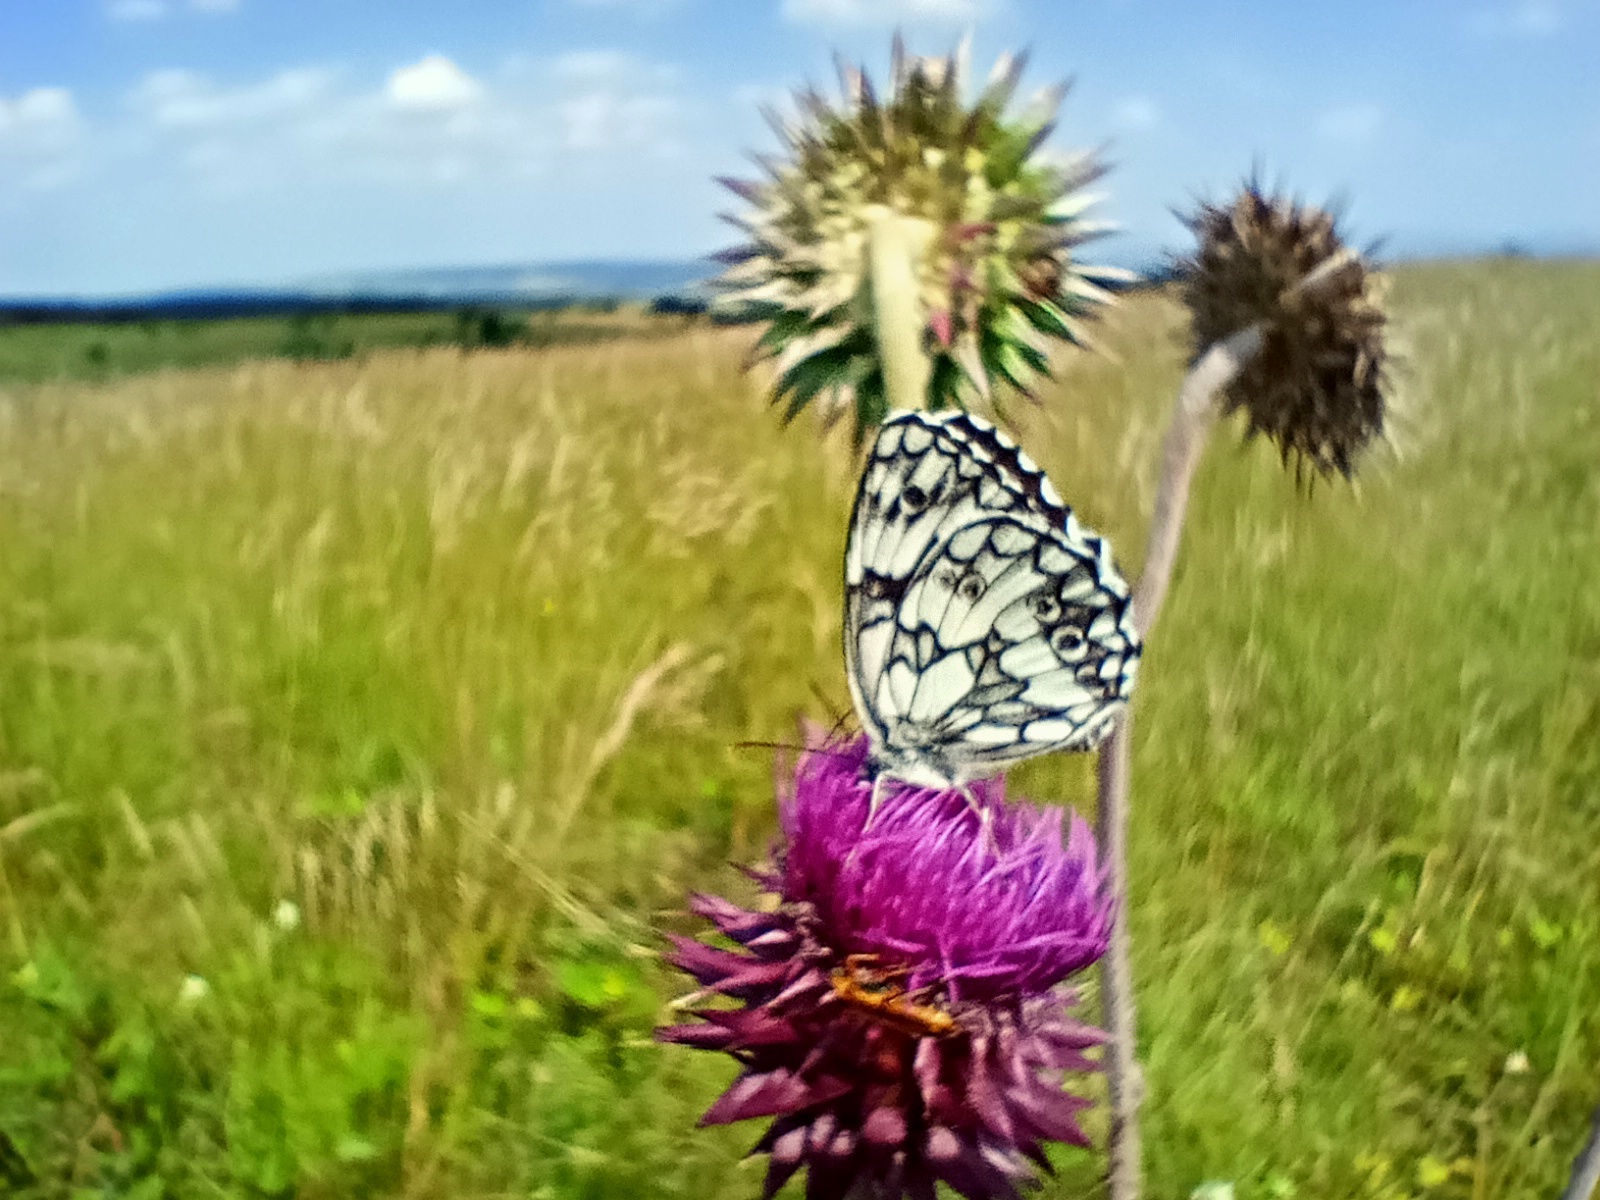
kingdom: Animalia
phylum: Arthropoda
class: Insecta
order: Lepidoptera
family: Nymphalidae
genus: Melanargia
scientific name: Melanargia galathea
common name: Marbled white
